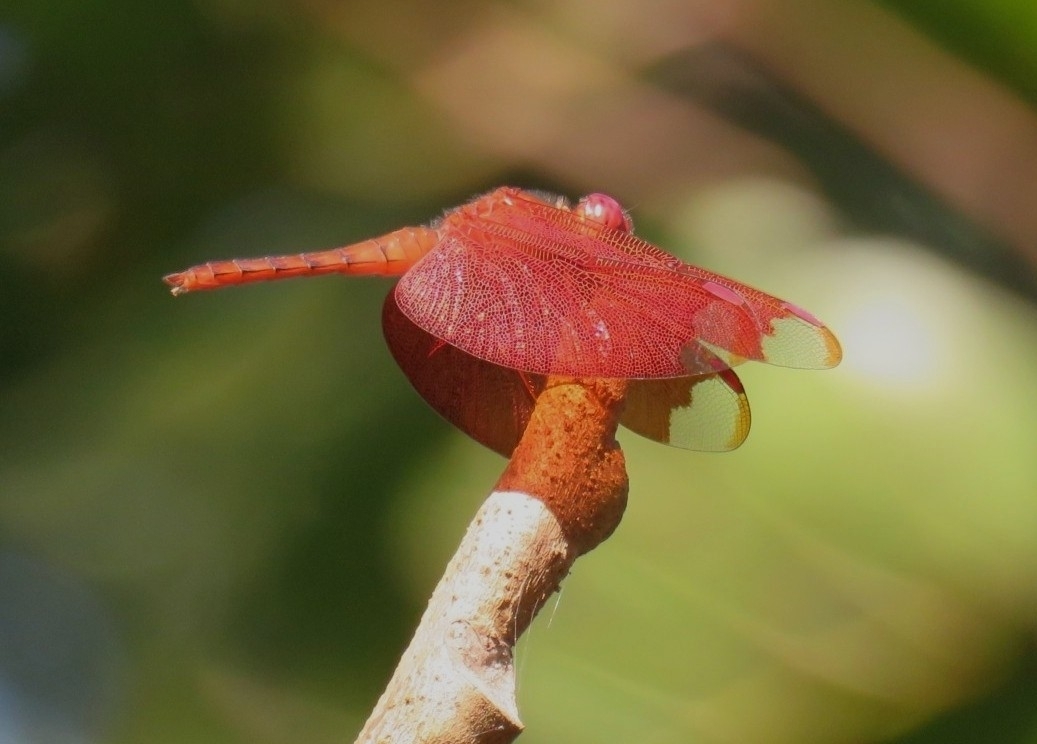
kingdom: Animalia
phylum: Arthropoda
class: Insecta
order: Odonata
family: Libellulidae
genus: Neurothemis
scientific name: Neurothemis fulvia
